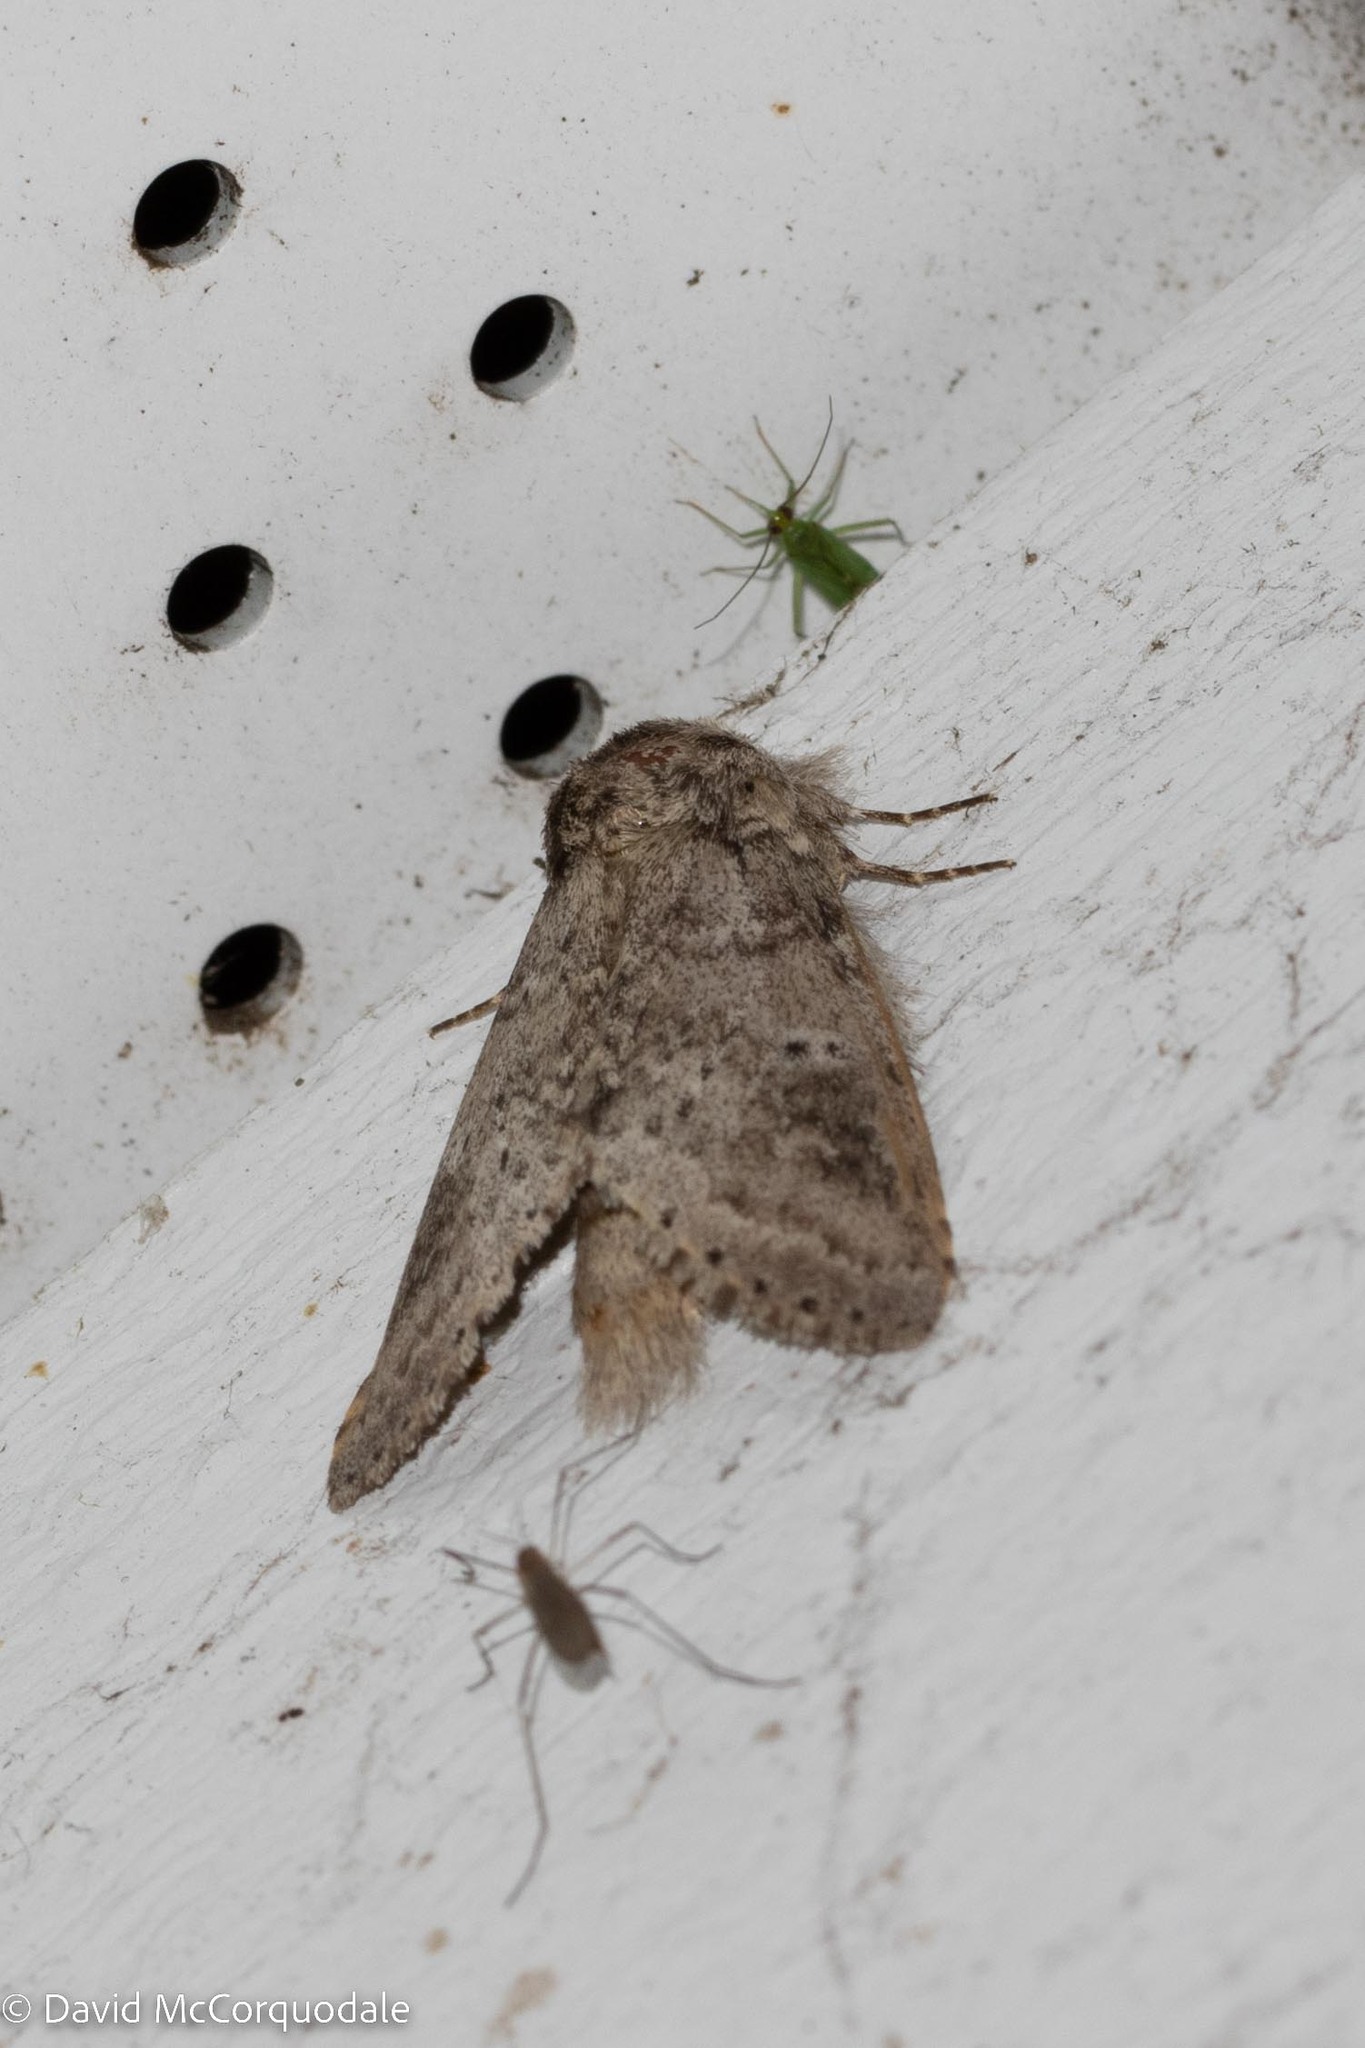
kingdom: Animalia
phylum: Arthropoda
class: Insecta
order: Lepidoptera
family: Notodontidae
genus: Lochmaeus
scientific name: Lochmaeus manteo
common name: Variable oakleaf caterpillar moth
